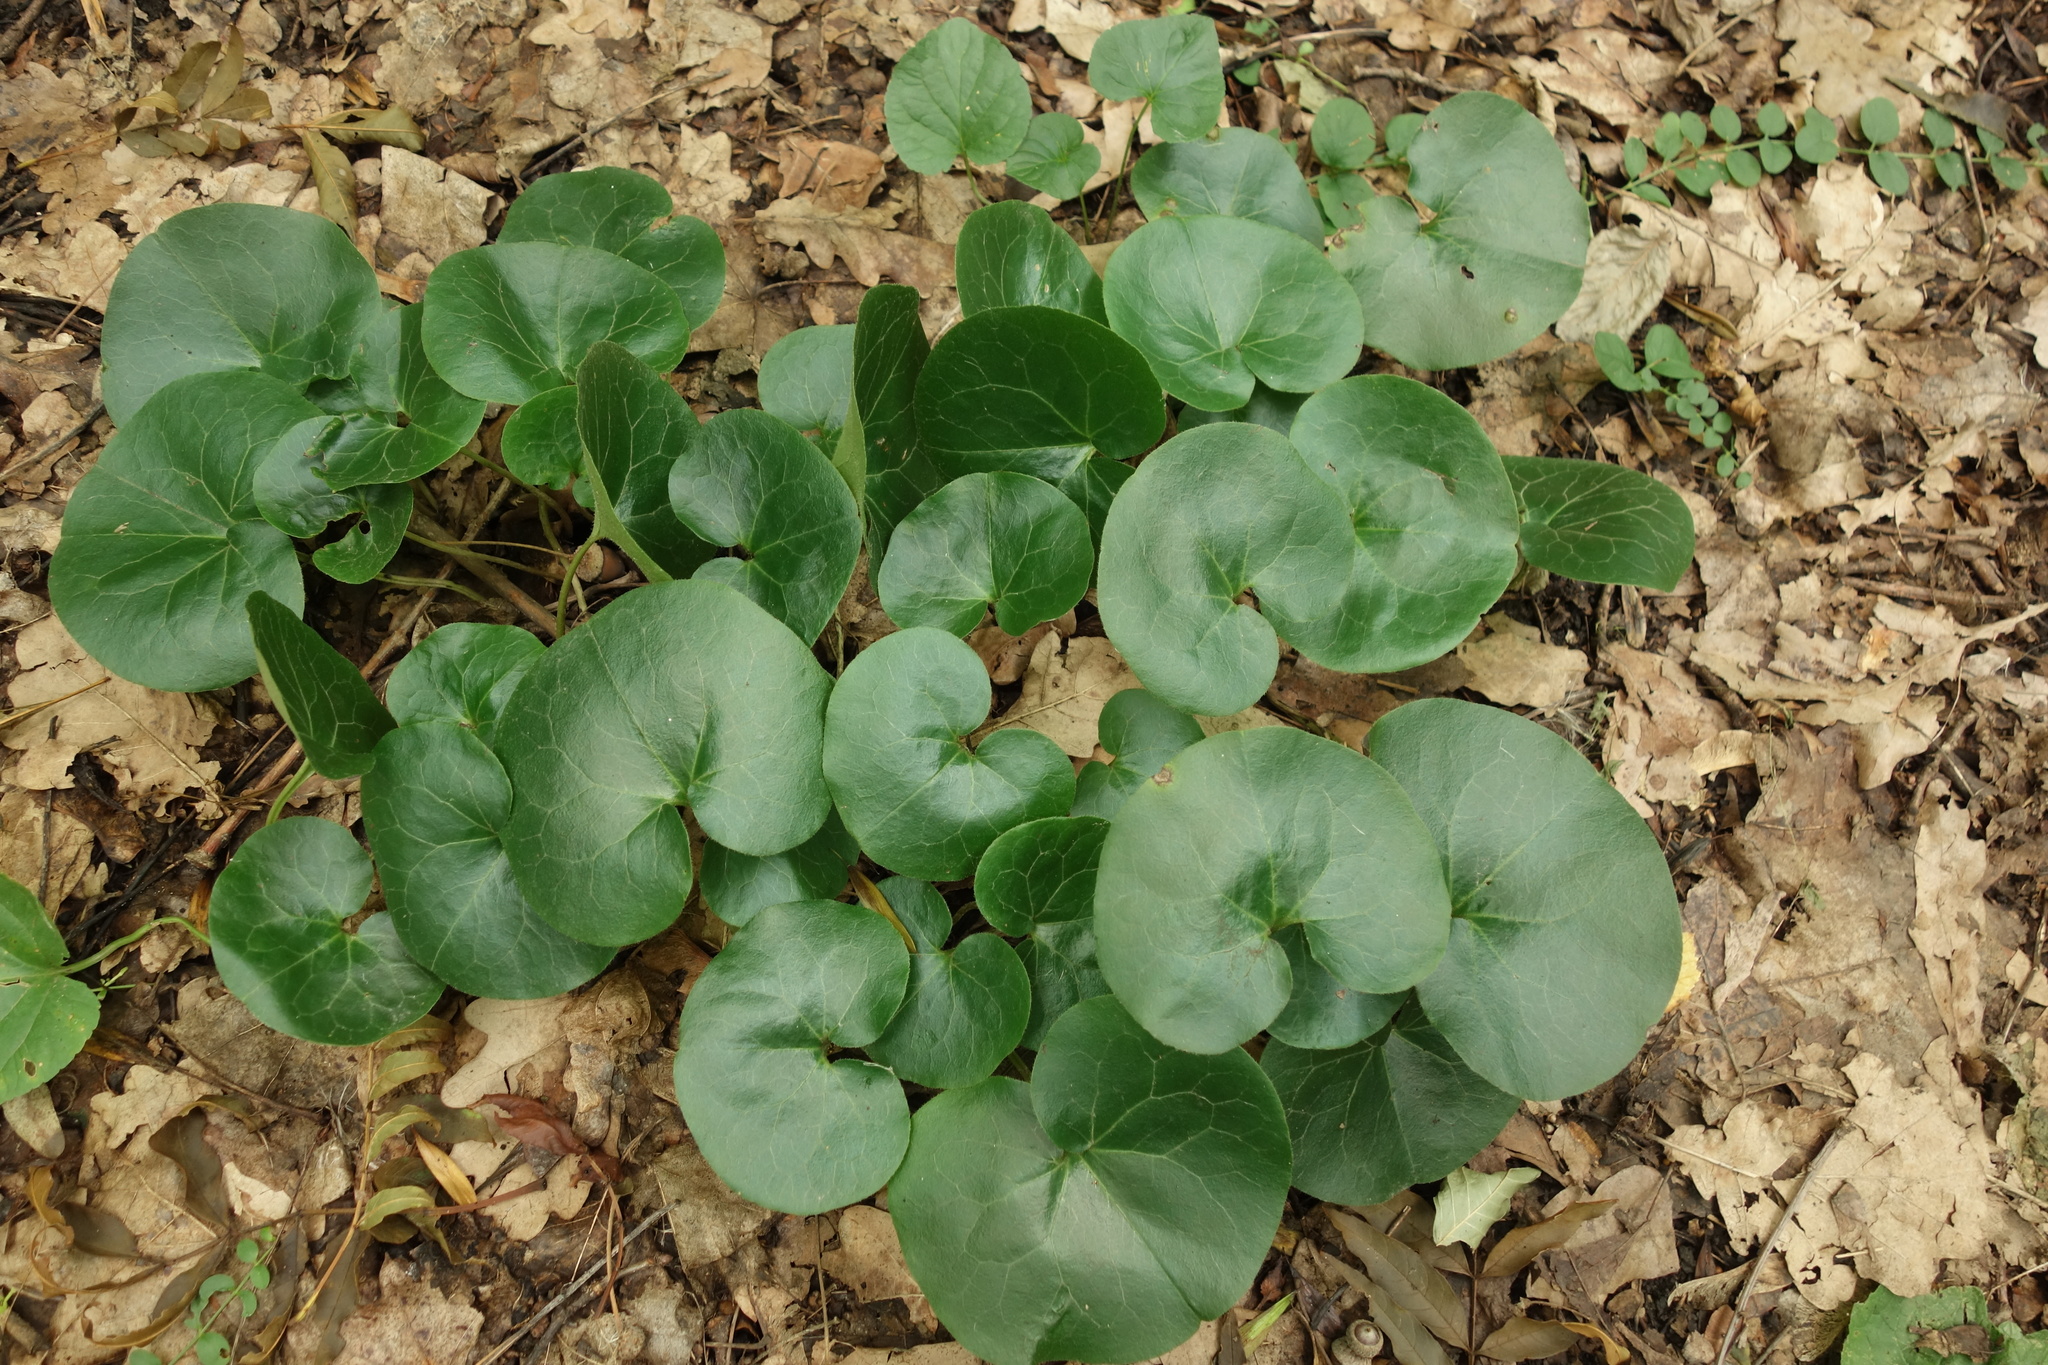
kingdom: Plantae
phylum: Tracheophyta
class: Magnoliopsida
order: Piperales
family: Aristolochiaceae
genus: Asarum
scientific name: Asarum europaeum
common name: Asarabacca
